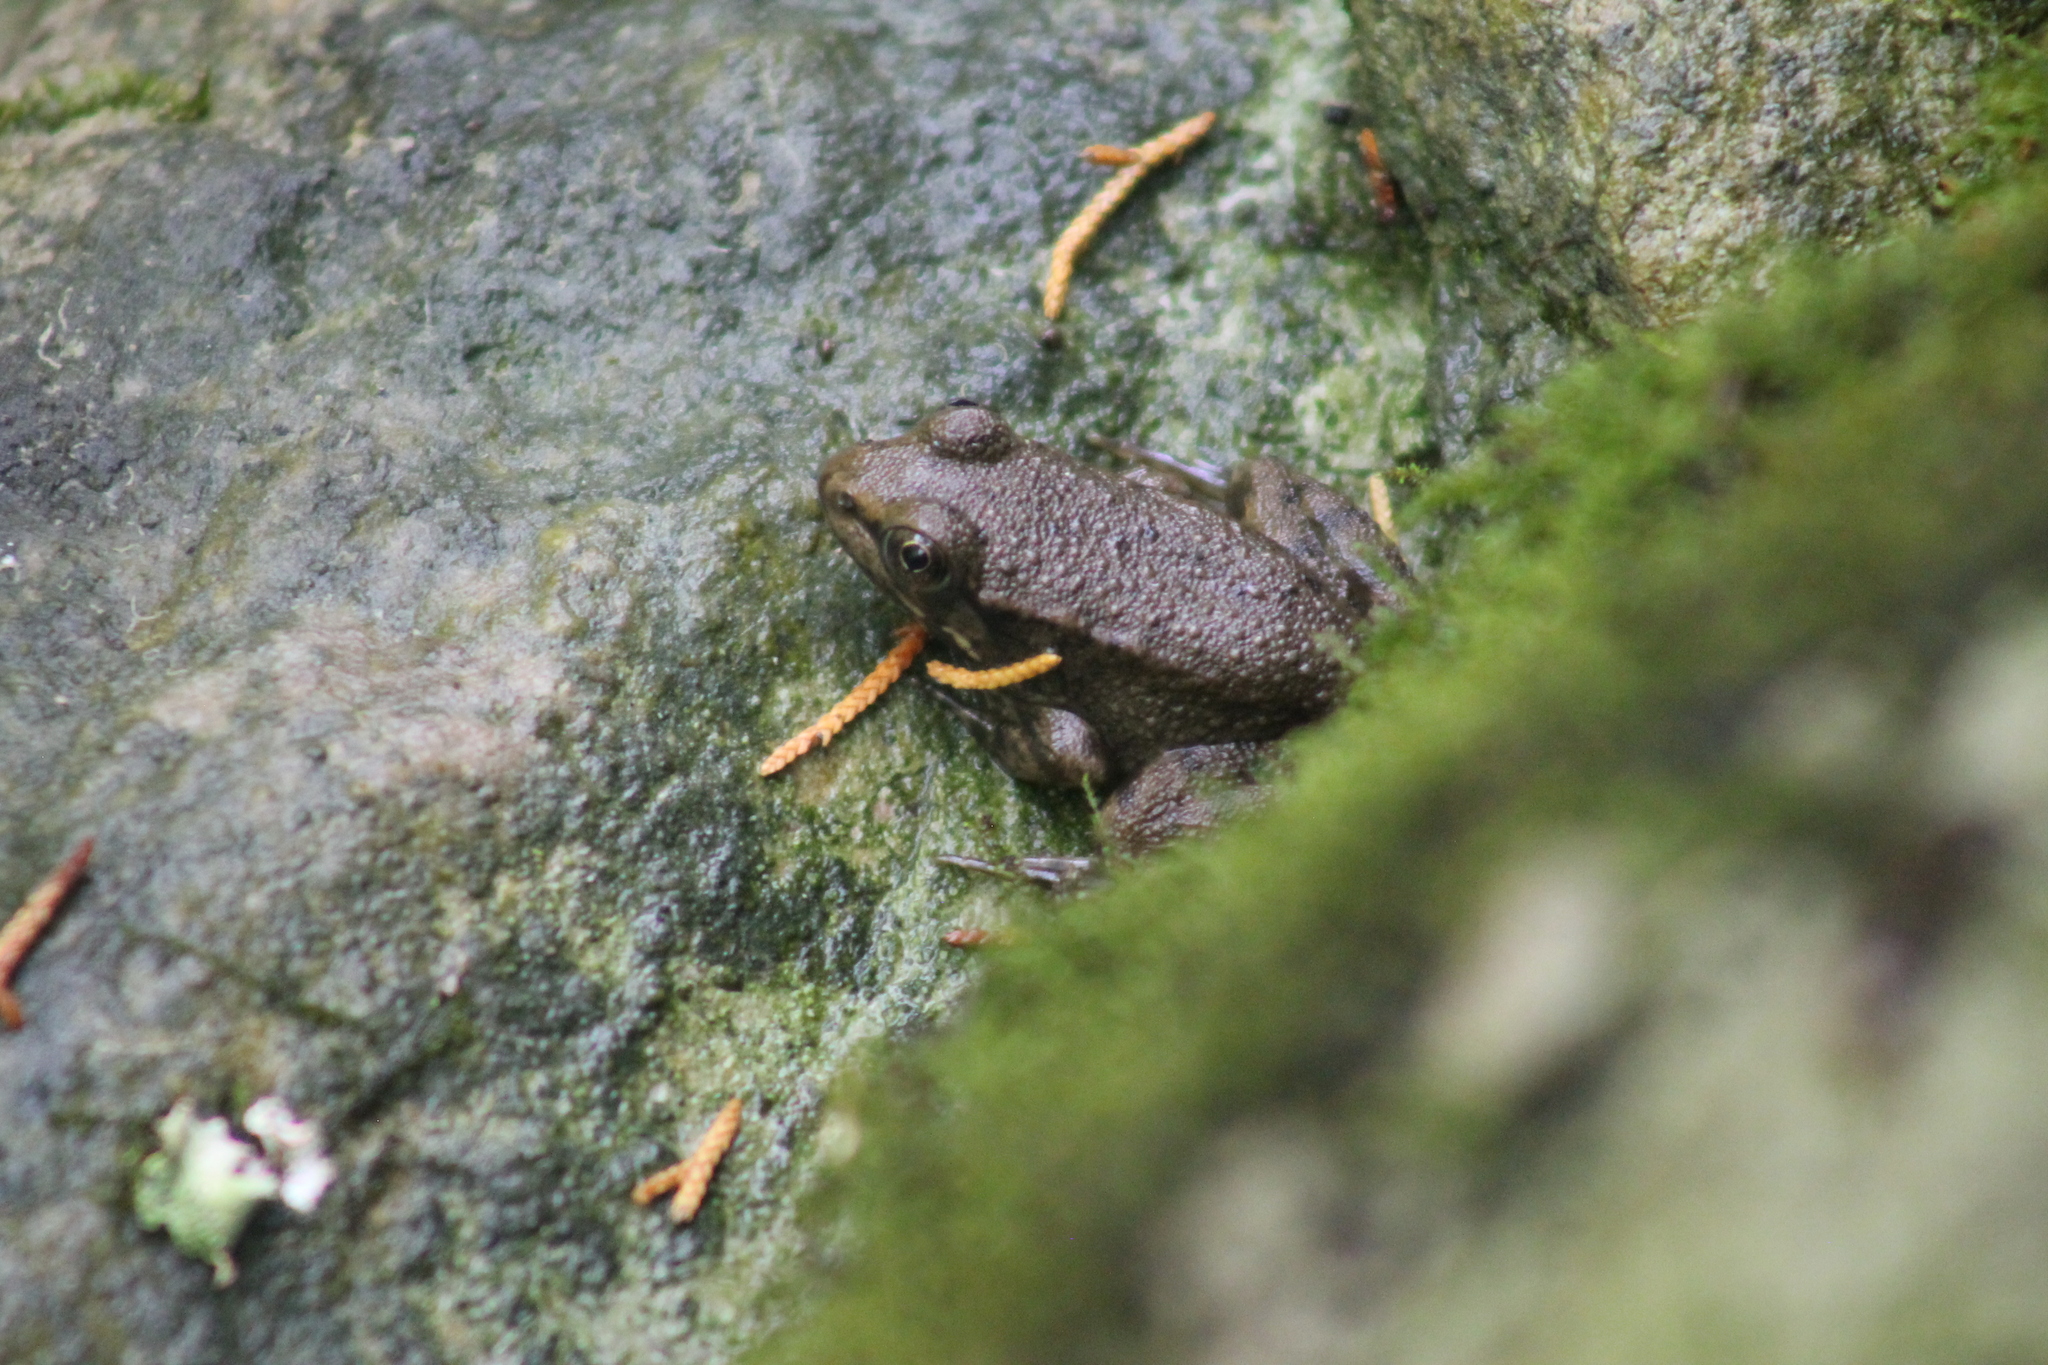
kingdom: Animalia
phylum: Chordata
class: Amphibia
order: Anura
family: Ranidae
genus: Lithobates
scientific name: Lithobates clamitans
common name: Green frog
